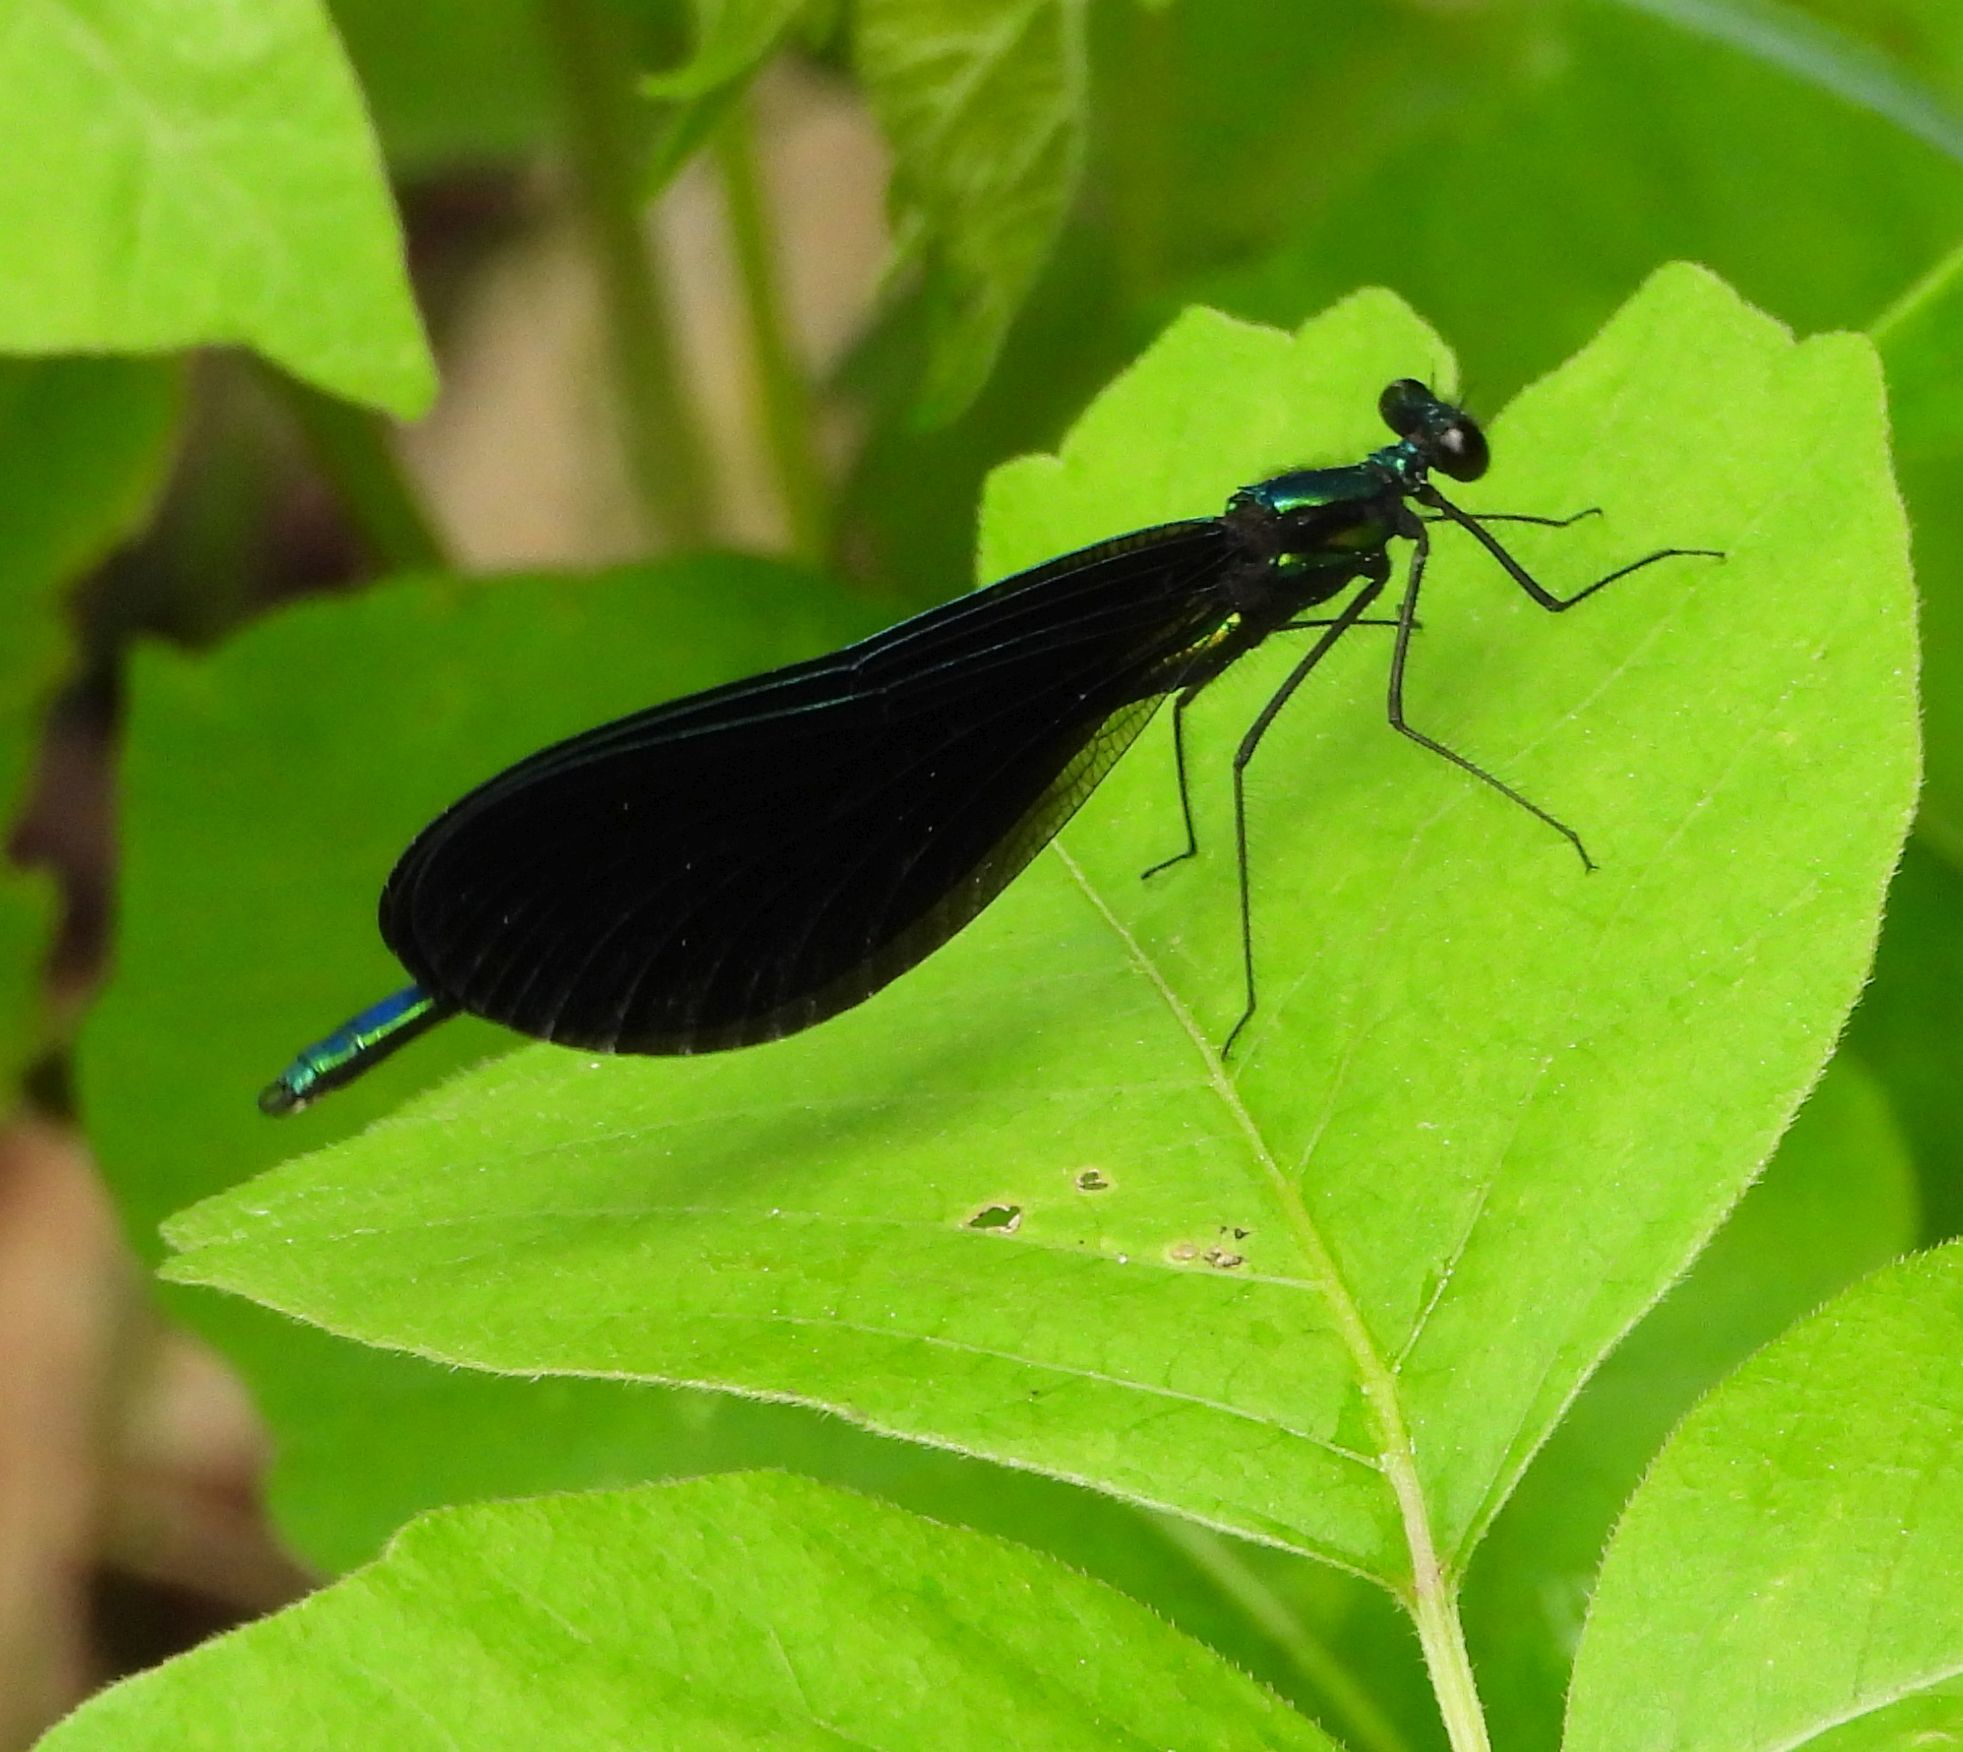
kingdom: Animalia
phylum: Arthropoda
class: Insecta
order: Odonata
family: Calopterygidae
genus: Calopteryx
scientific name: Calopteryx maculata
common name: Ebony jewelwing
